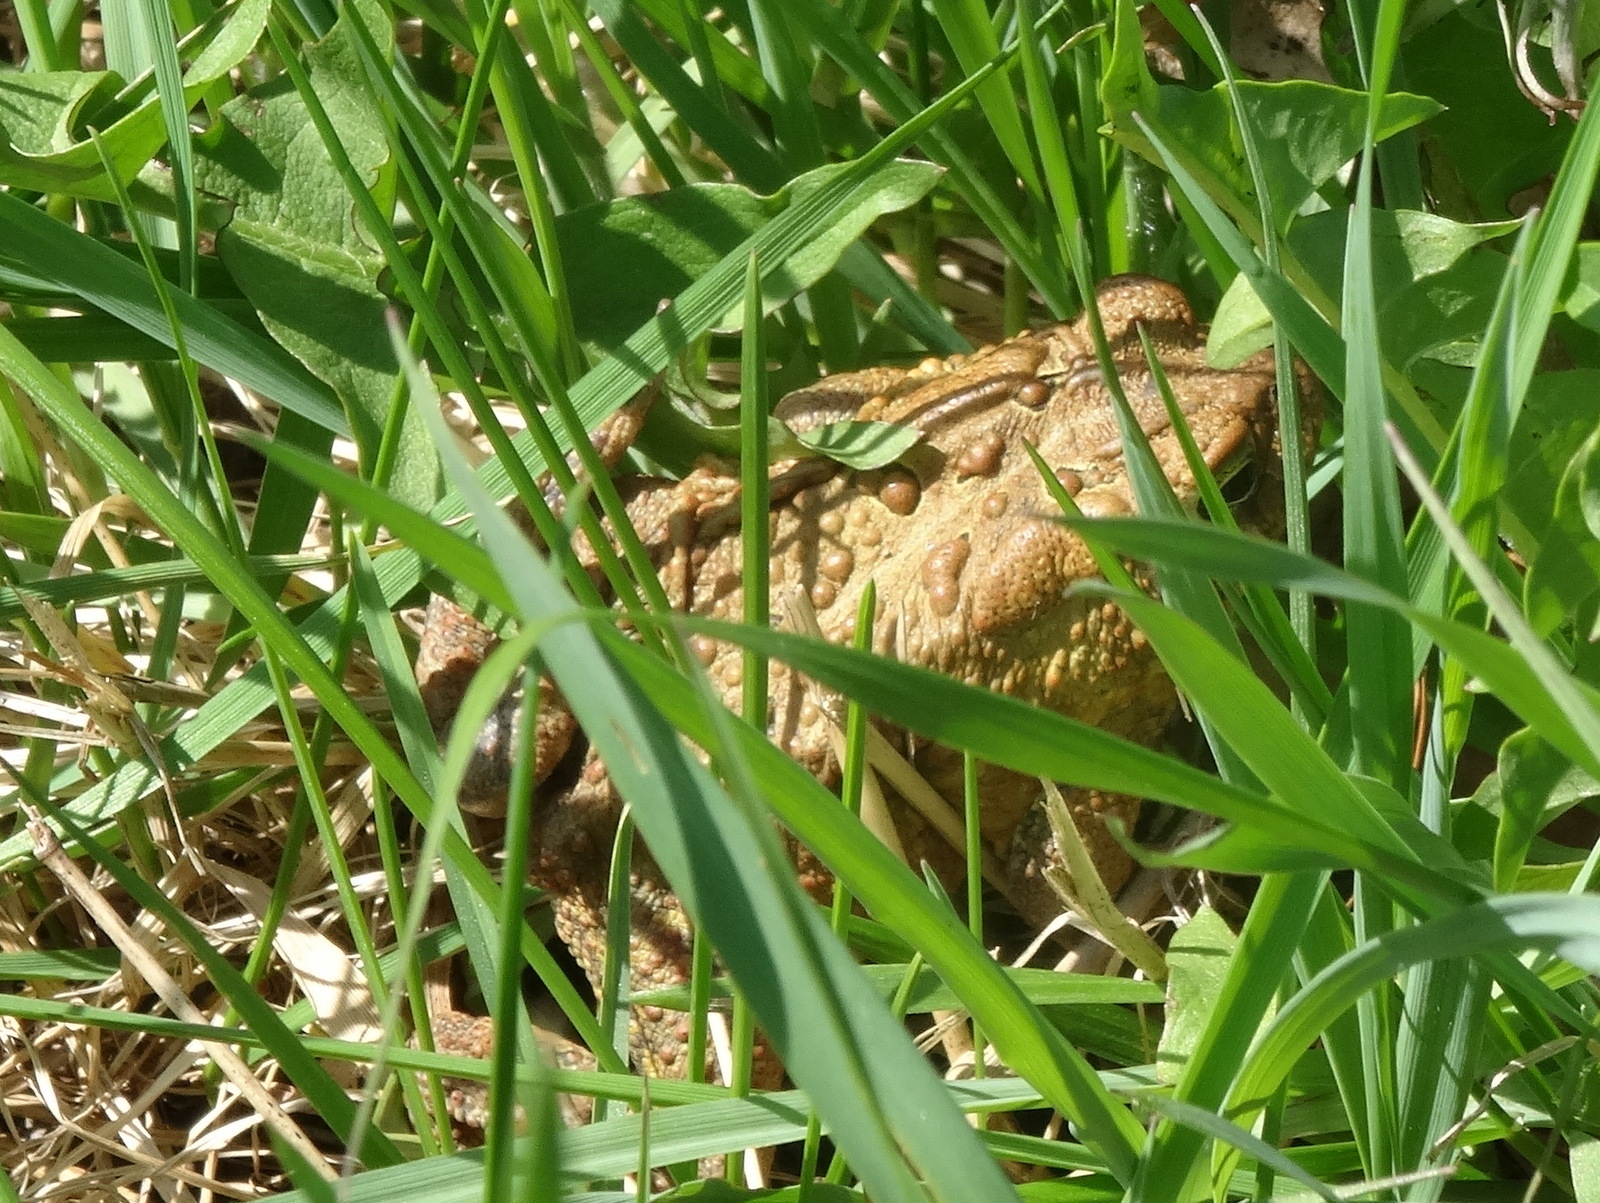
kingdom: Animalia
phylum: Chordata
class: Amphibia
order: Anura
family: Bufonidae
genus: Anaxyrus
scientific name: Anaxyrus americanus
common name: American toad
